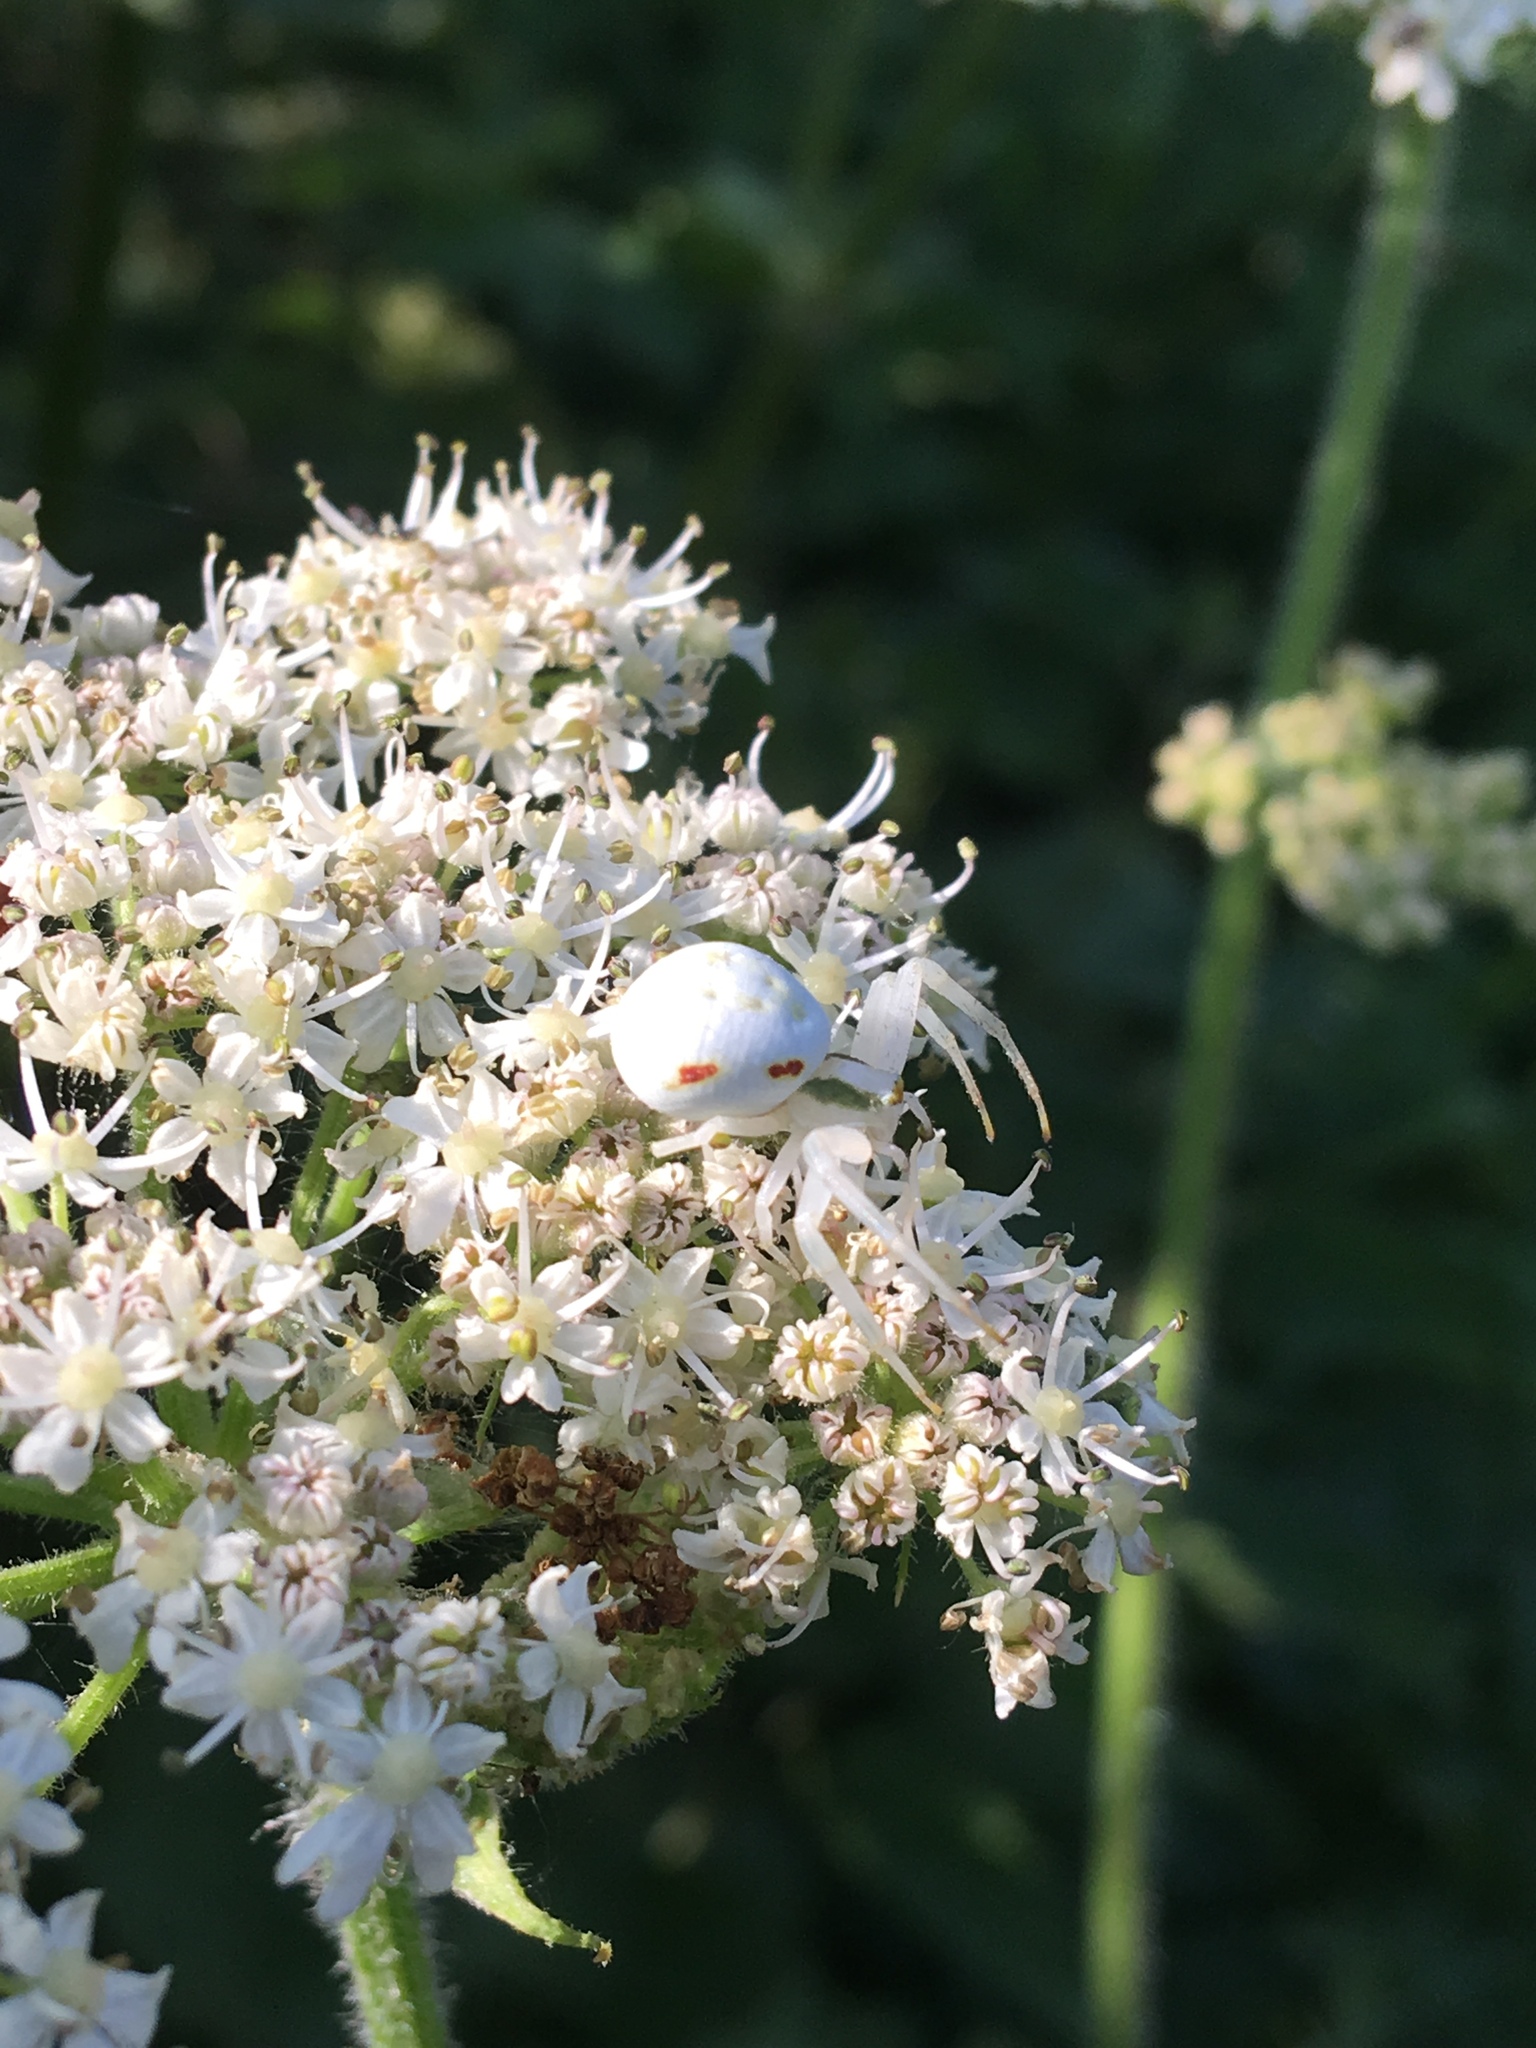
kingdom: Animalia
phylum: Arthropoda
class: Arachnida
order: Araneae
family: Thomisidae
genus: Misumena
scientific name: Misumena vatia
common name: Goldenrod crab spider
